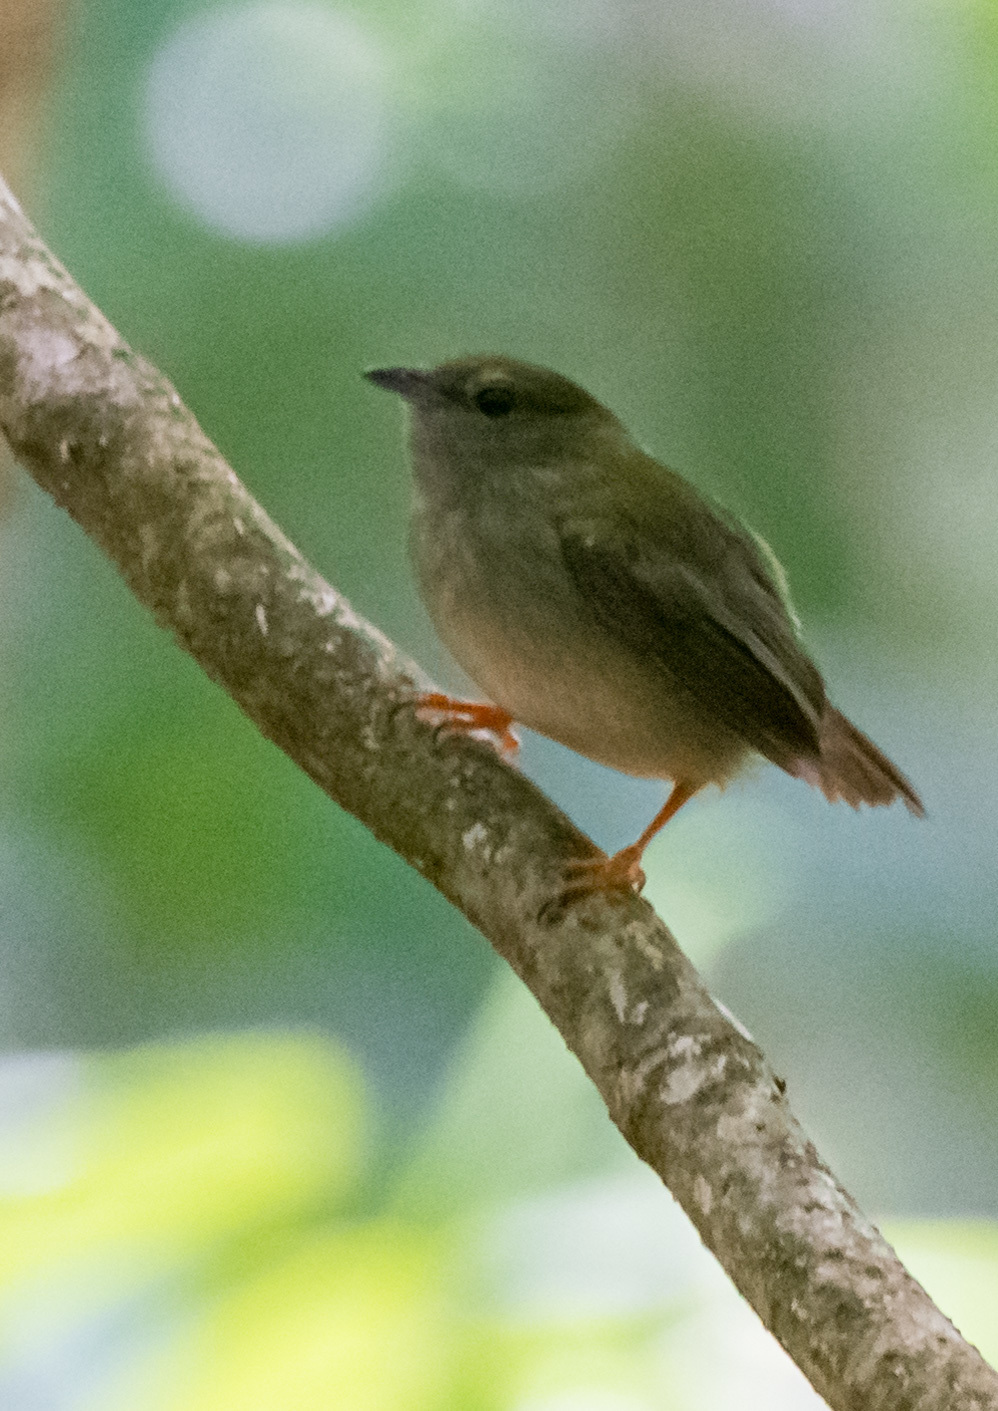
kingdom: Animalia
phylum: Chordata
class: Aves
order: Passeriformes
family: Pipridae
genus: Manacus
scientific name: Manacus manacus
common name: White-bearded manakin
